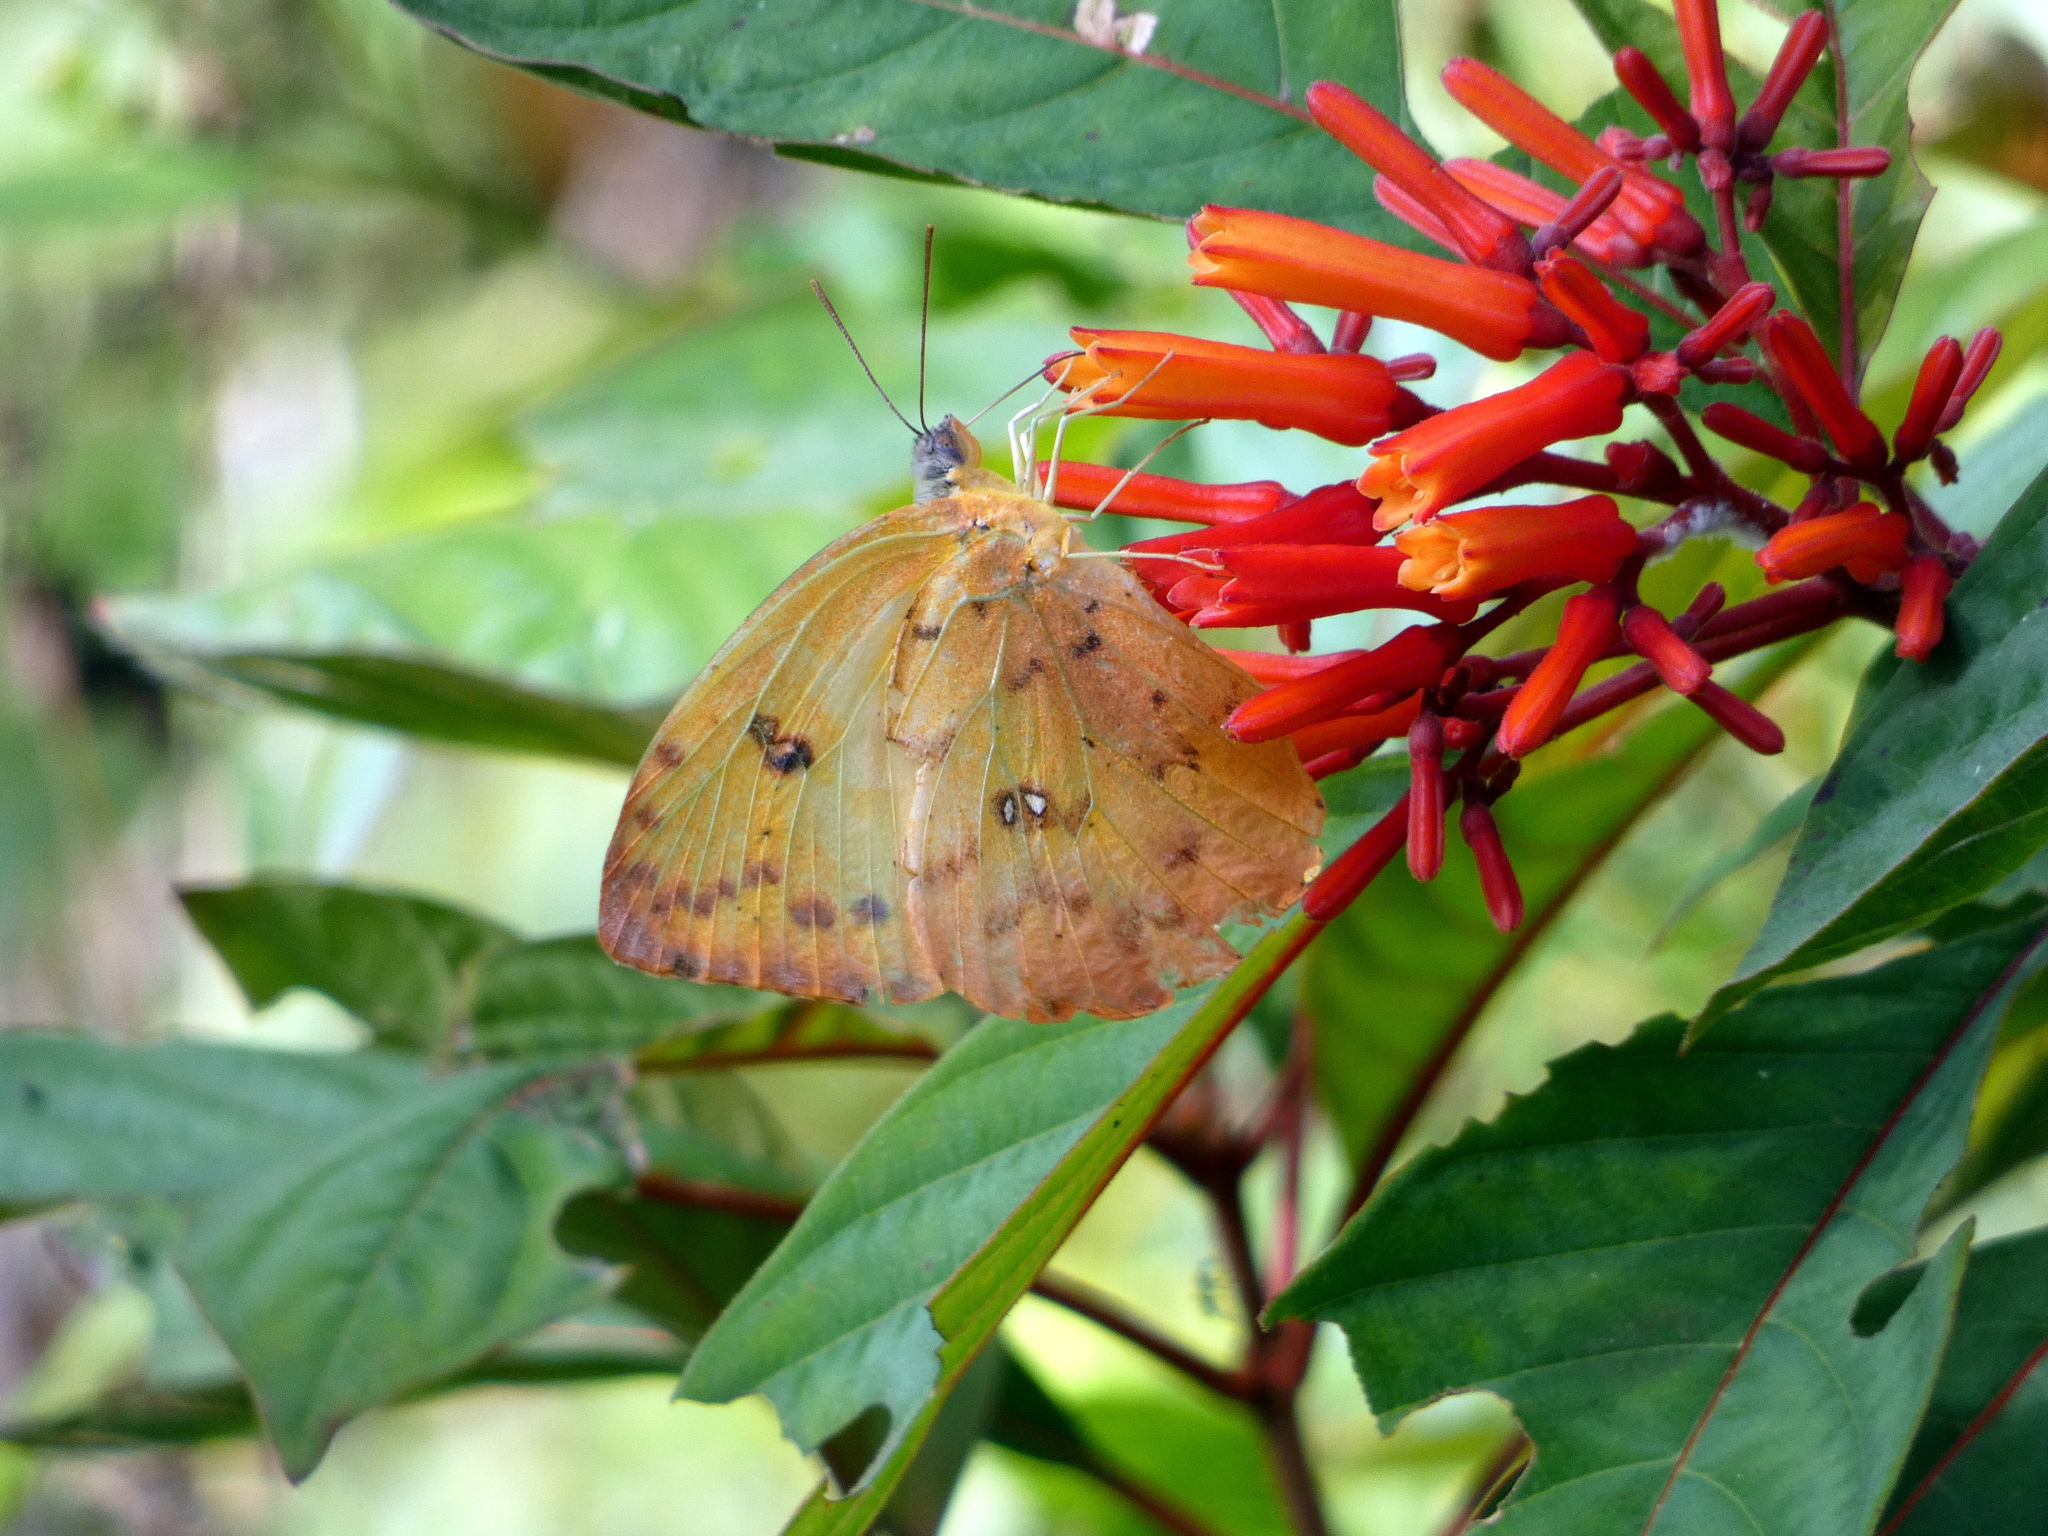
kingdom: Animalia
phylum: Arthropoda
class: Insecta
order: Lepidoptera
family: Pieridae
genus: Phoebis
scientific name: Phoebis philea
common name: Orange-barred giant sulphur
